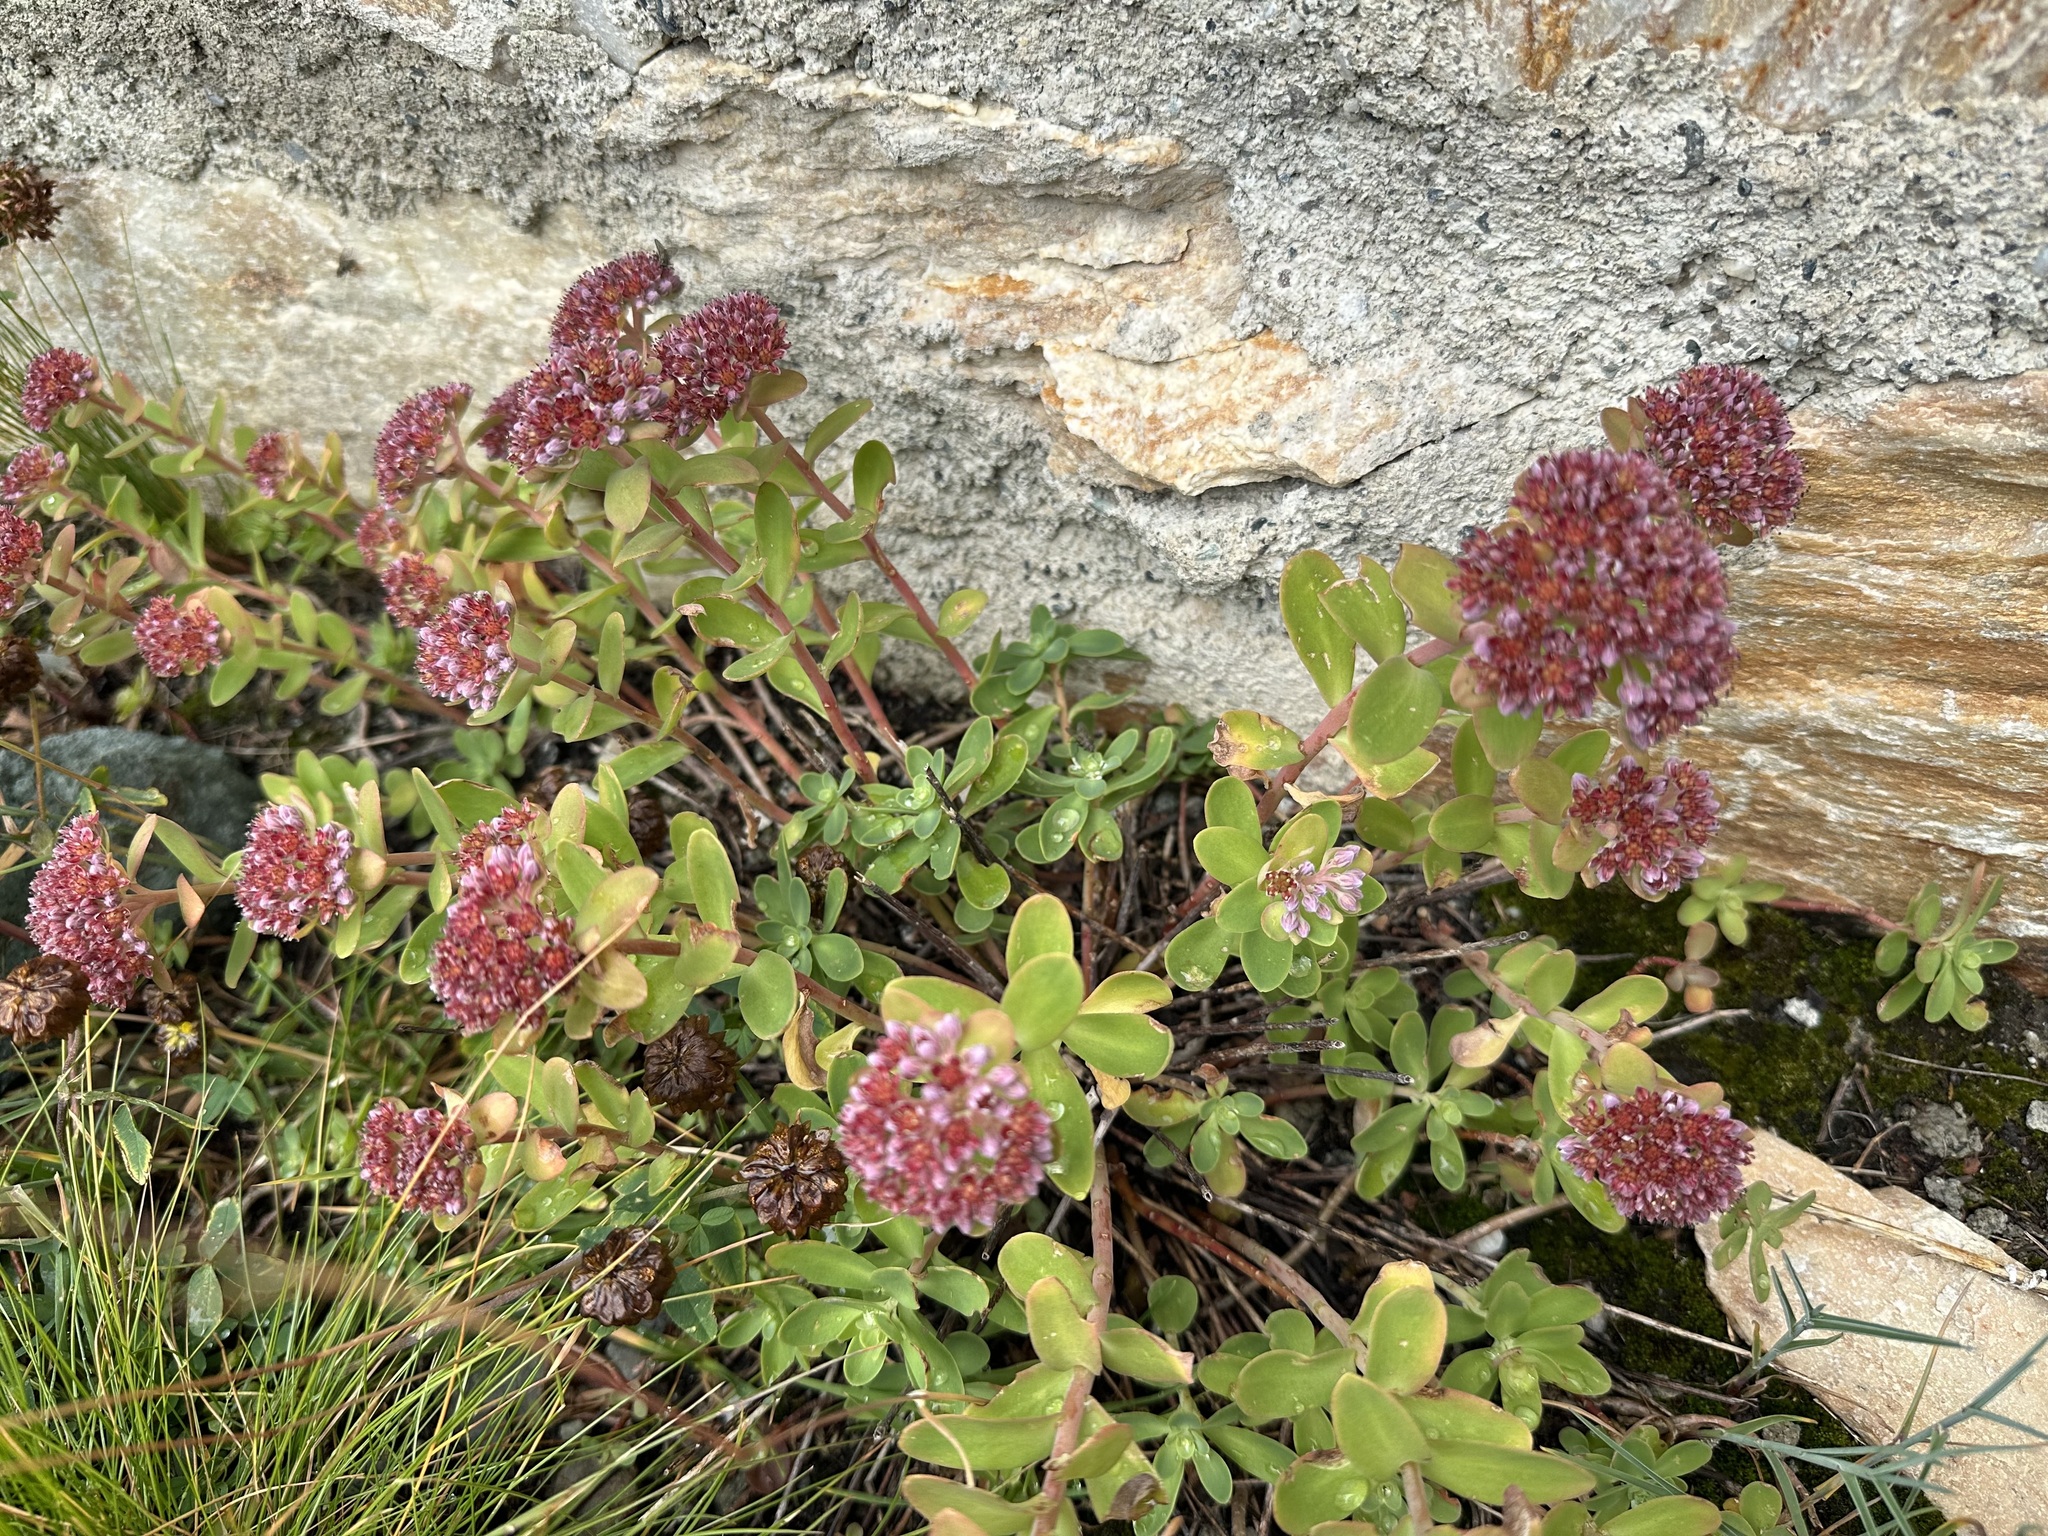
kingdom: Plantae
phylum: Tracheophyta
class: Magnoliopsida
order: Saxifragales
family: Crassulaceae
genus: Hylotelephium
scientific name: Hylotelephium anacampseros
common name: Love-restorer
